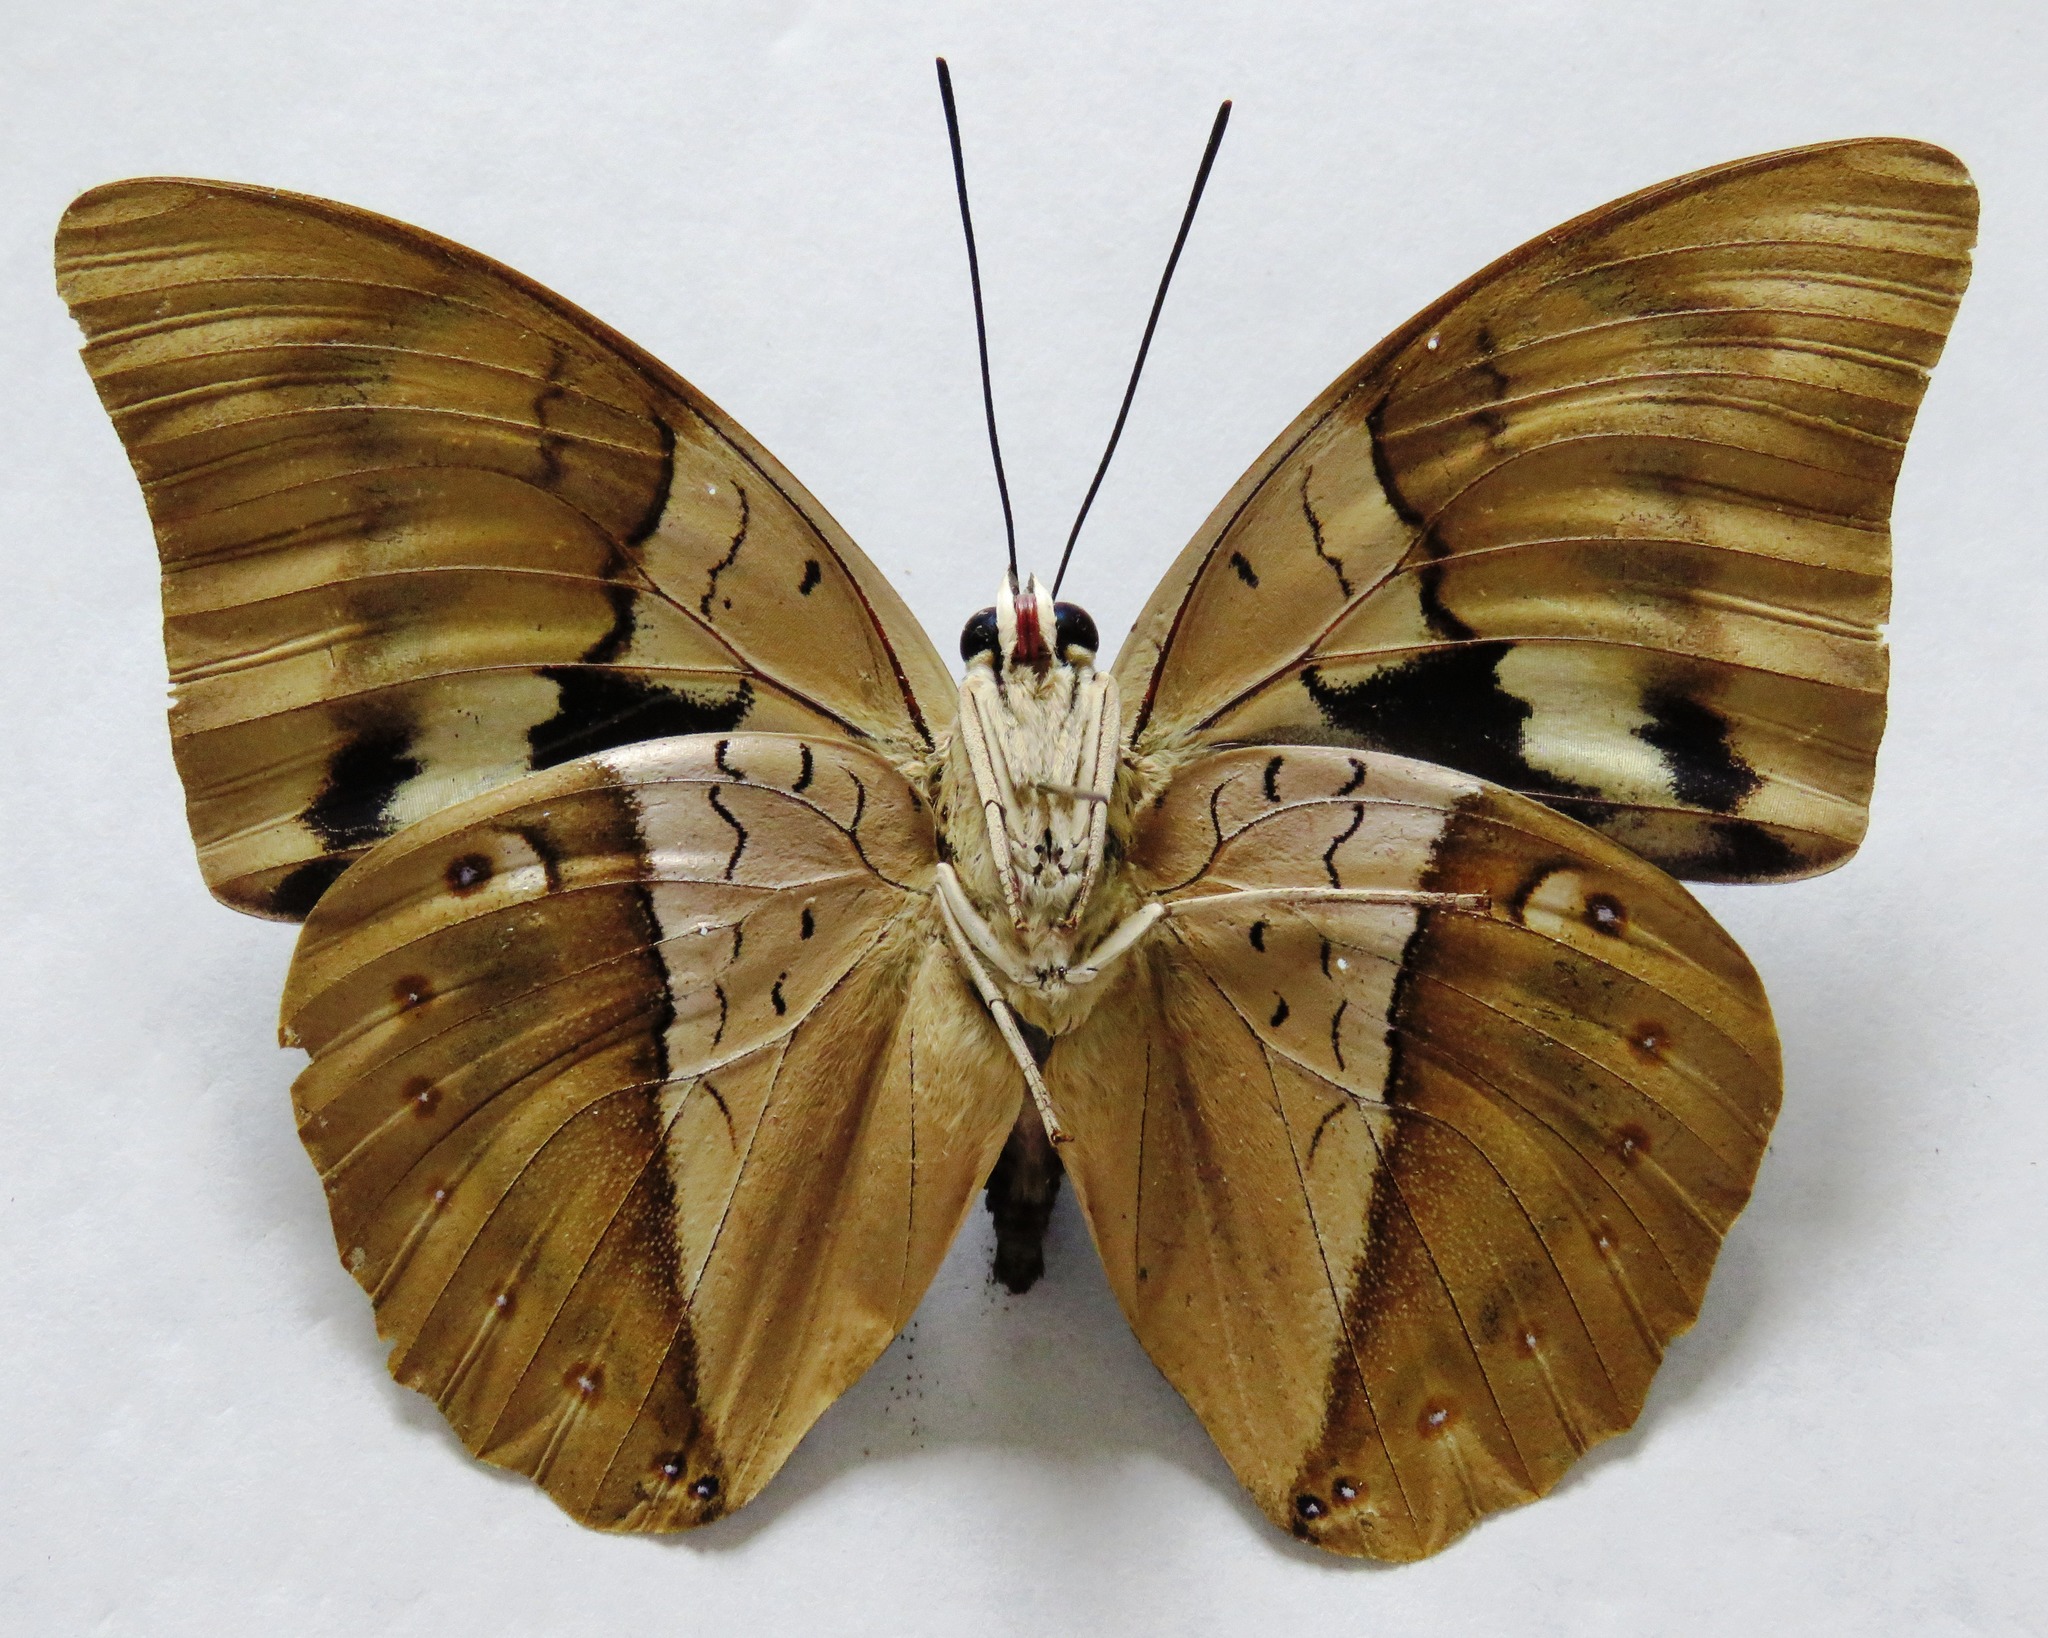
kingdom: Animalia
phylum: Arthropoda
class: Insecta
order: Lepidoptera
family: Nymphalidae
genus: Prepona
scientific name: Prepona meander
